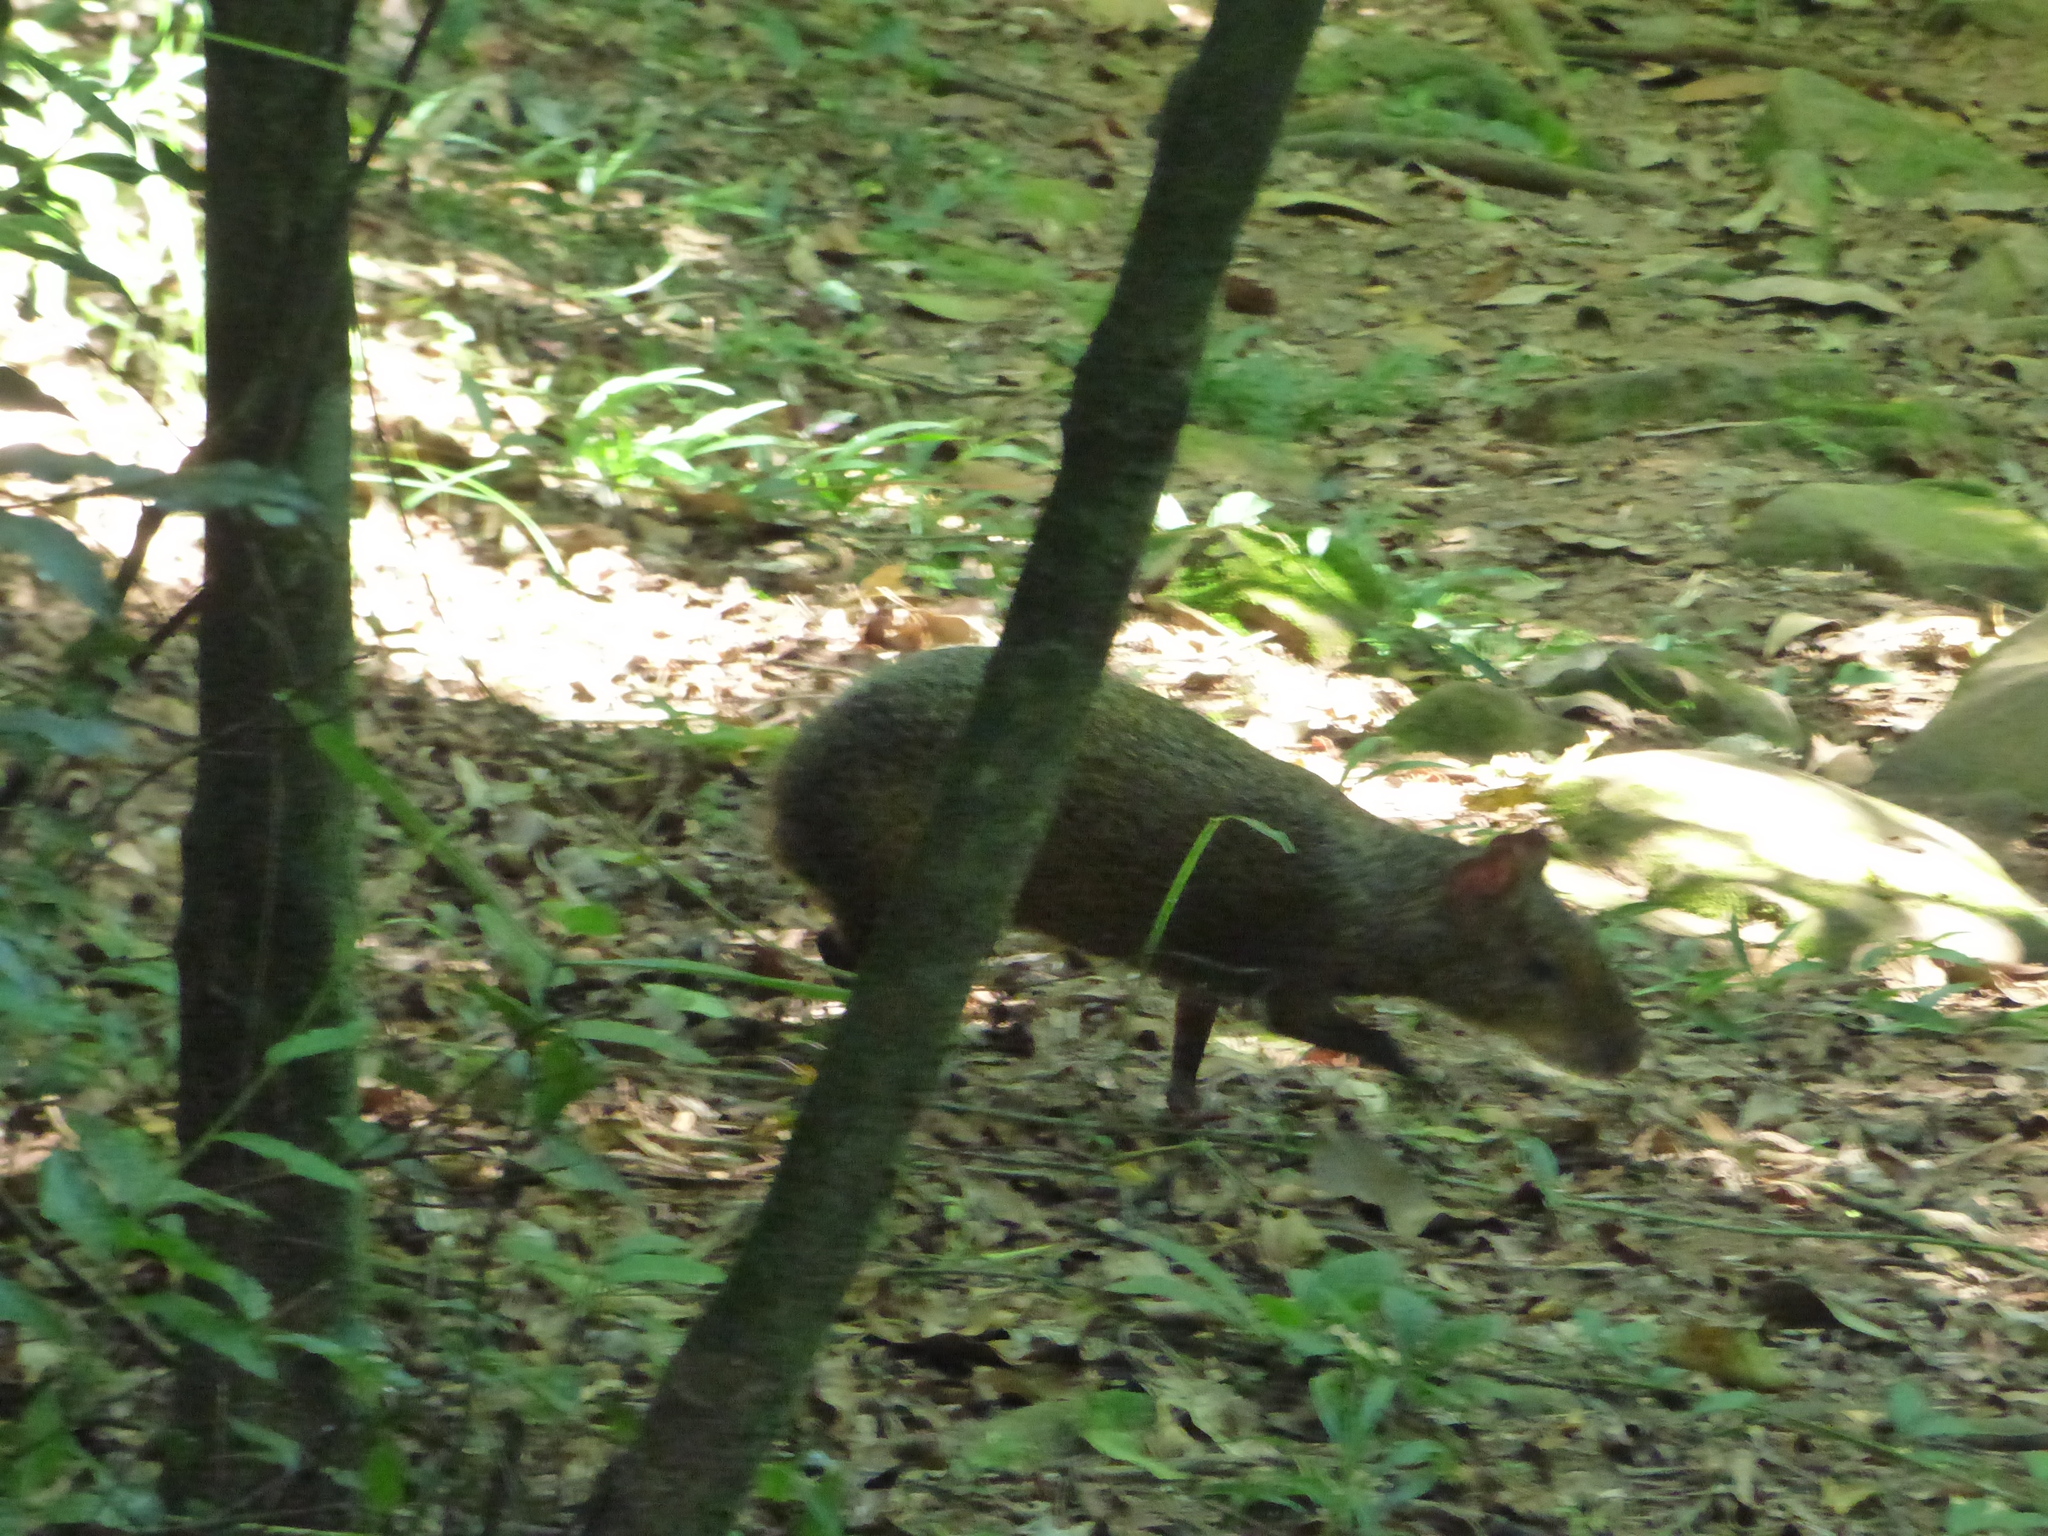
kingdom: Animalia
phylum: Chordata
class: Mammalia
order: Rodentia
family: Dasyproctidae
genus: Dasyprocta
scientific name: Dasyprocta azarae
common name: Azara's agouti
